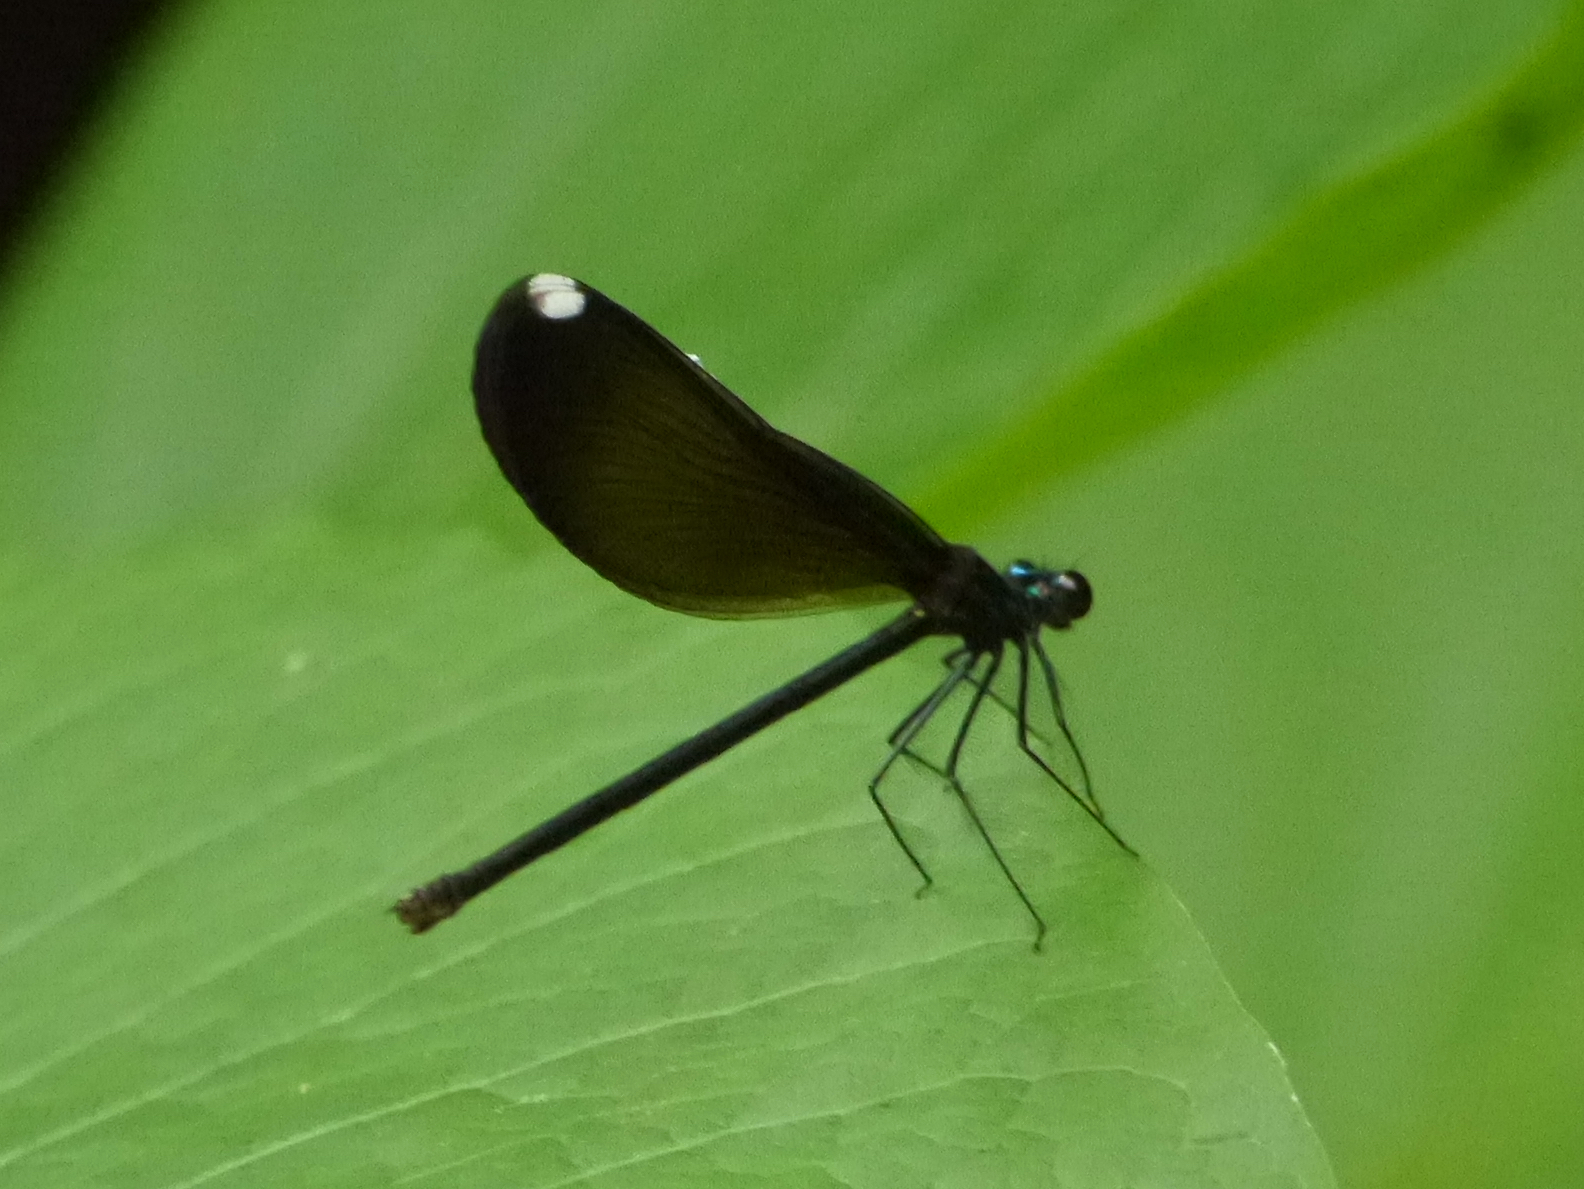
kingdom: Animalia
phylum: Arthropoda
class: Insecta
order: Odonata
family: Calopterygidae
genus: Calopteryx
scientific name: Calopteryx maculata
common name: Ebony jewelwing
